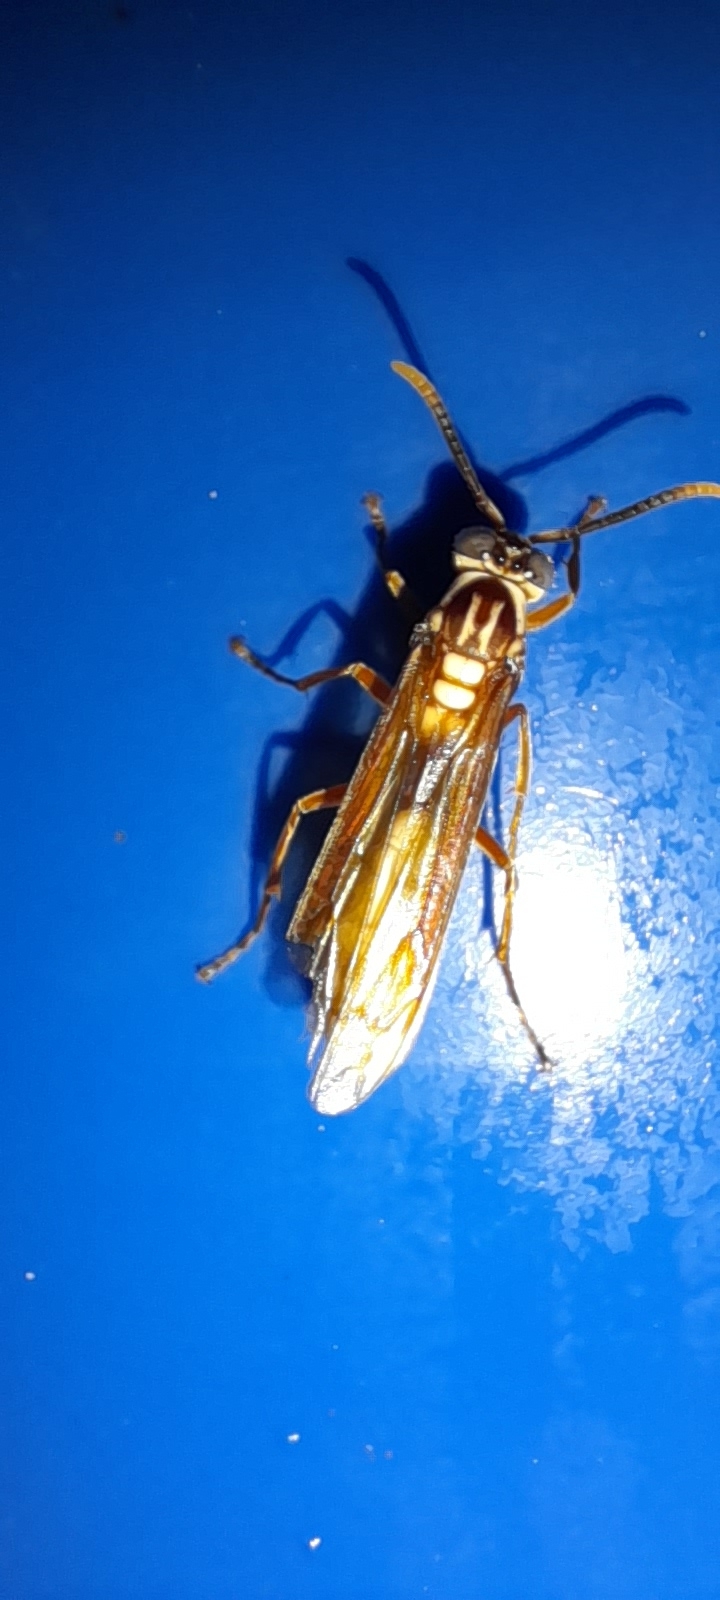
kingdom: Animalia
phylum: Arthropoda
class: Insecta
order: Hymenoptera
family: Vespidae
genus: Apoica
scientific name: Apoica pallens
